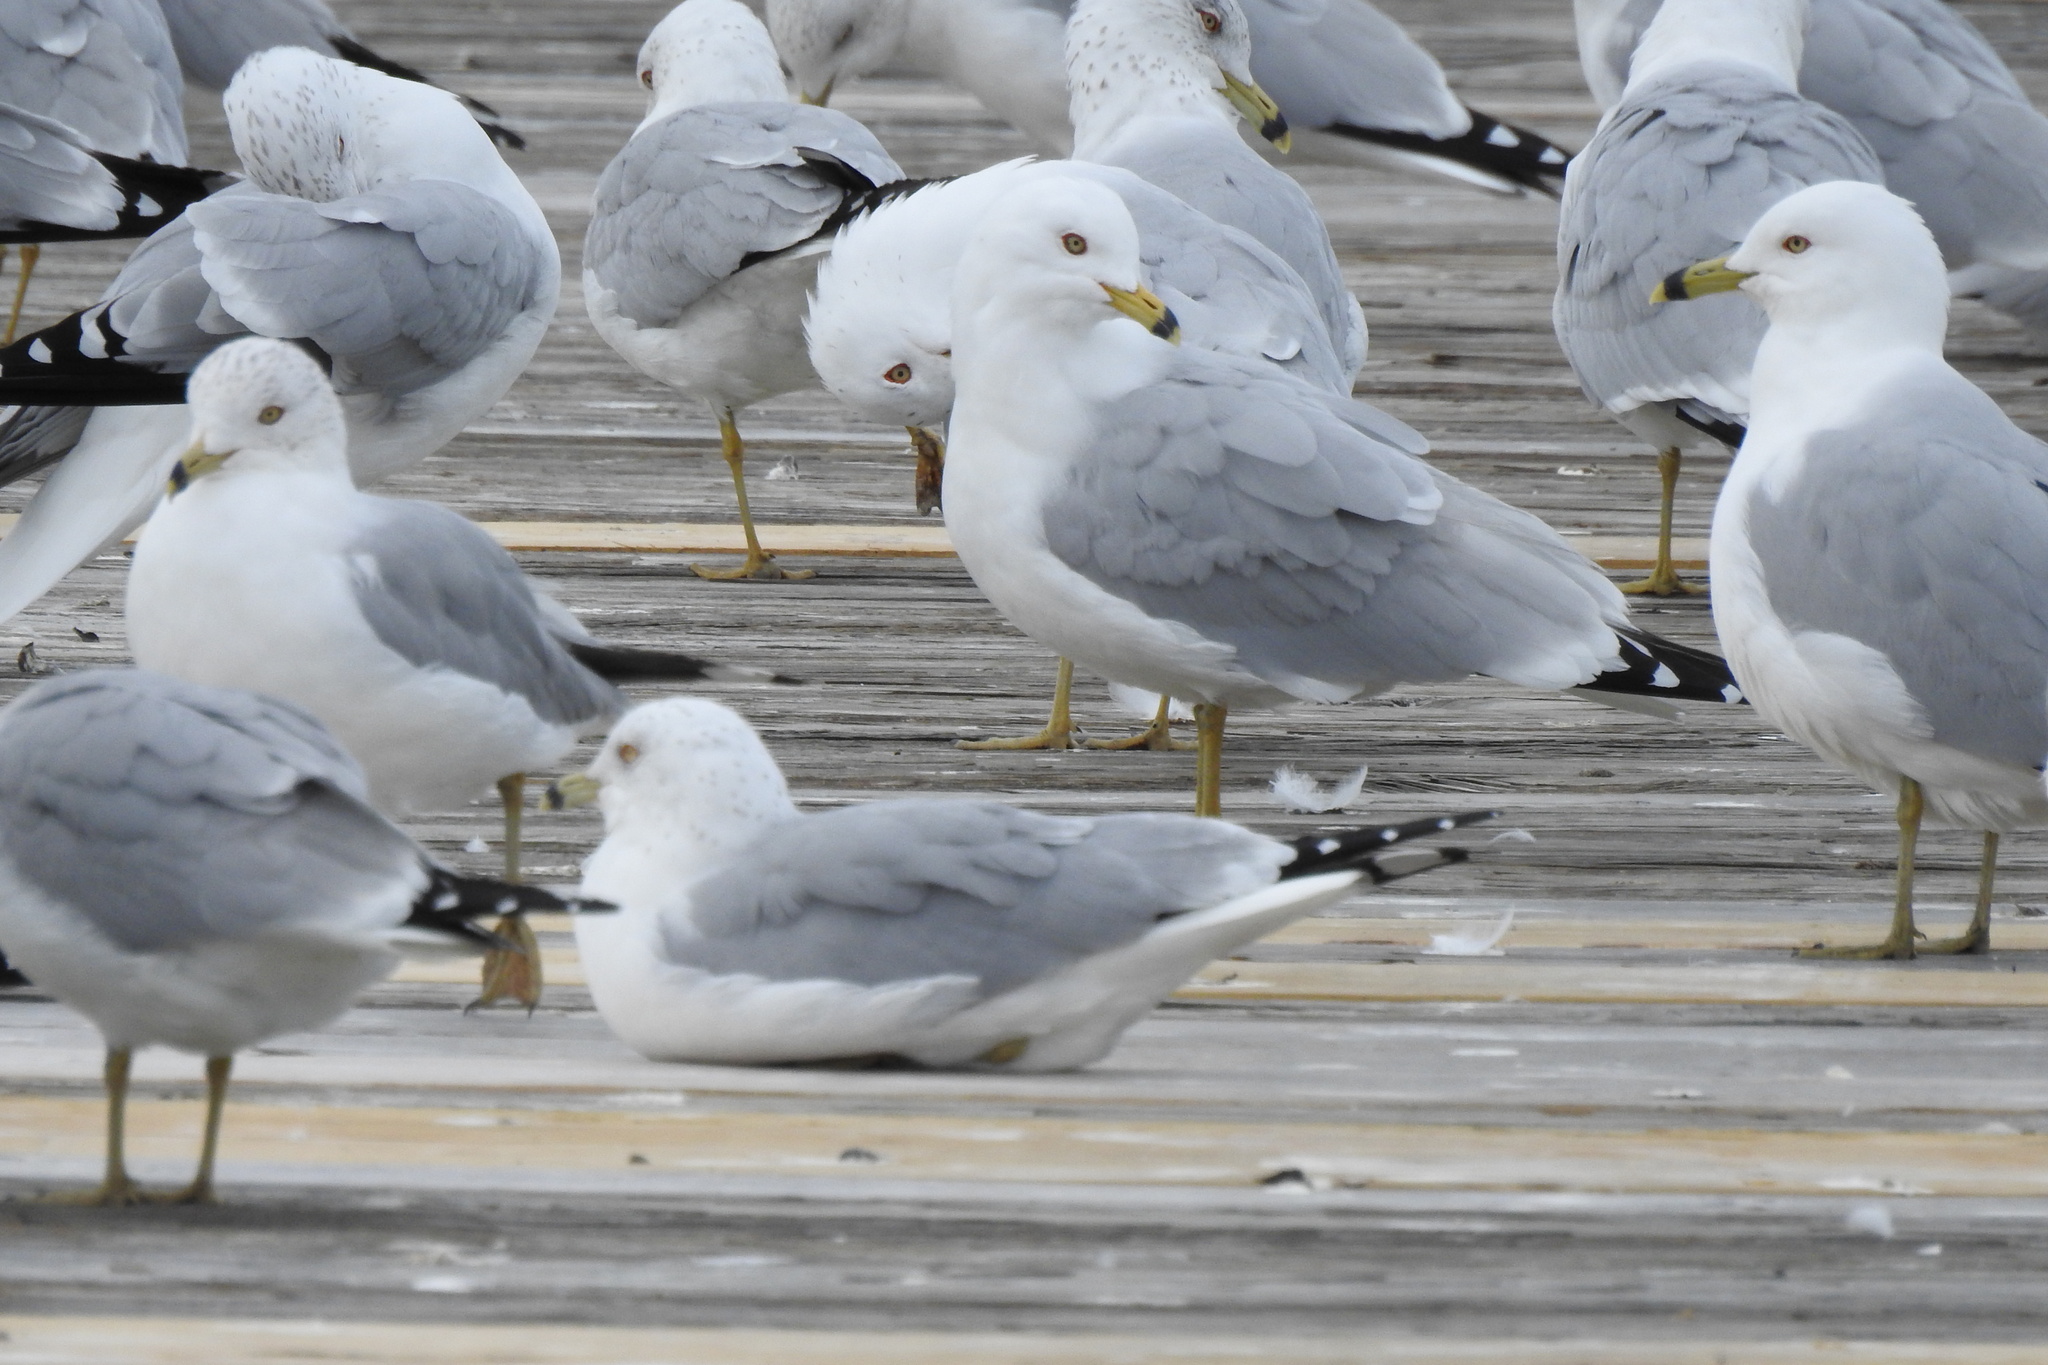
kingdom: Animalia
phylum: Chordata
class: Aves
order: Charadriiformes
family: Laridae
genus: Larus
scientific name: Larus delawarensis
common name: Ring-billed gull
